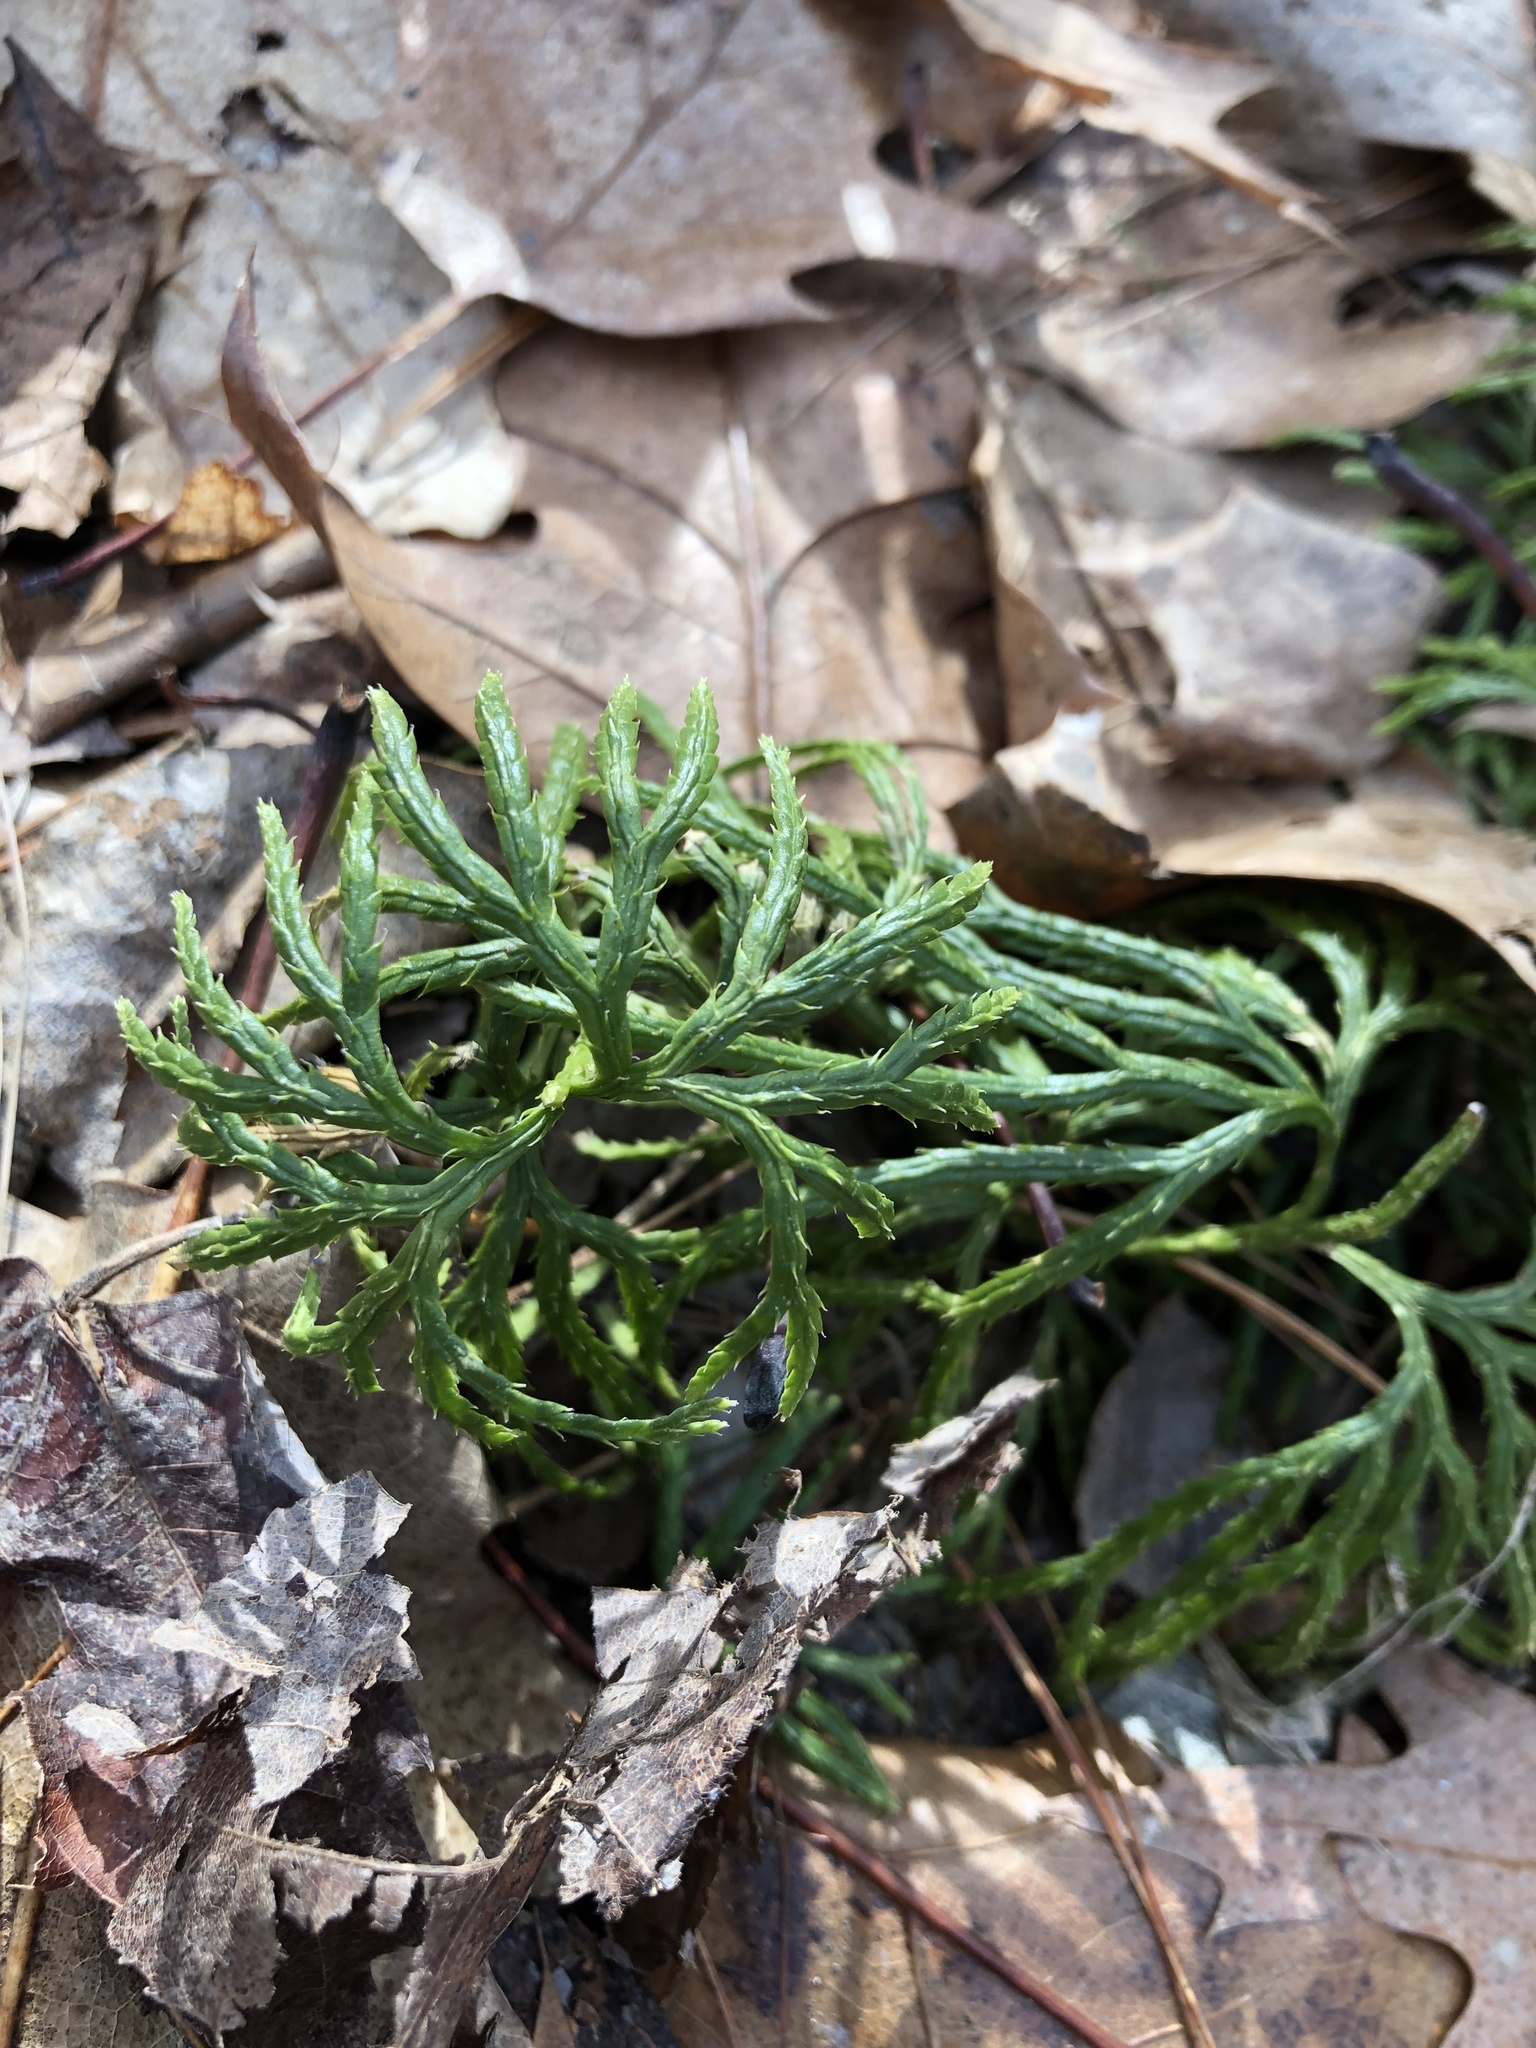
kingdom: Plantae
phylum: Tracheophyta
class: Lycopodiopsida
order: Lycopodiales
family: Lycopodiaceae
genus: Diphasiastrum
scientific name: Diphasiastrum digitatum
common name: Southern running-pine
